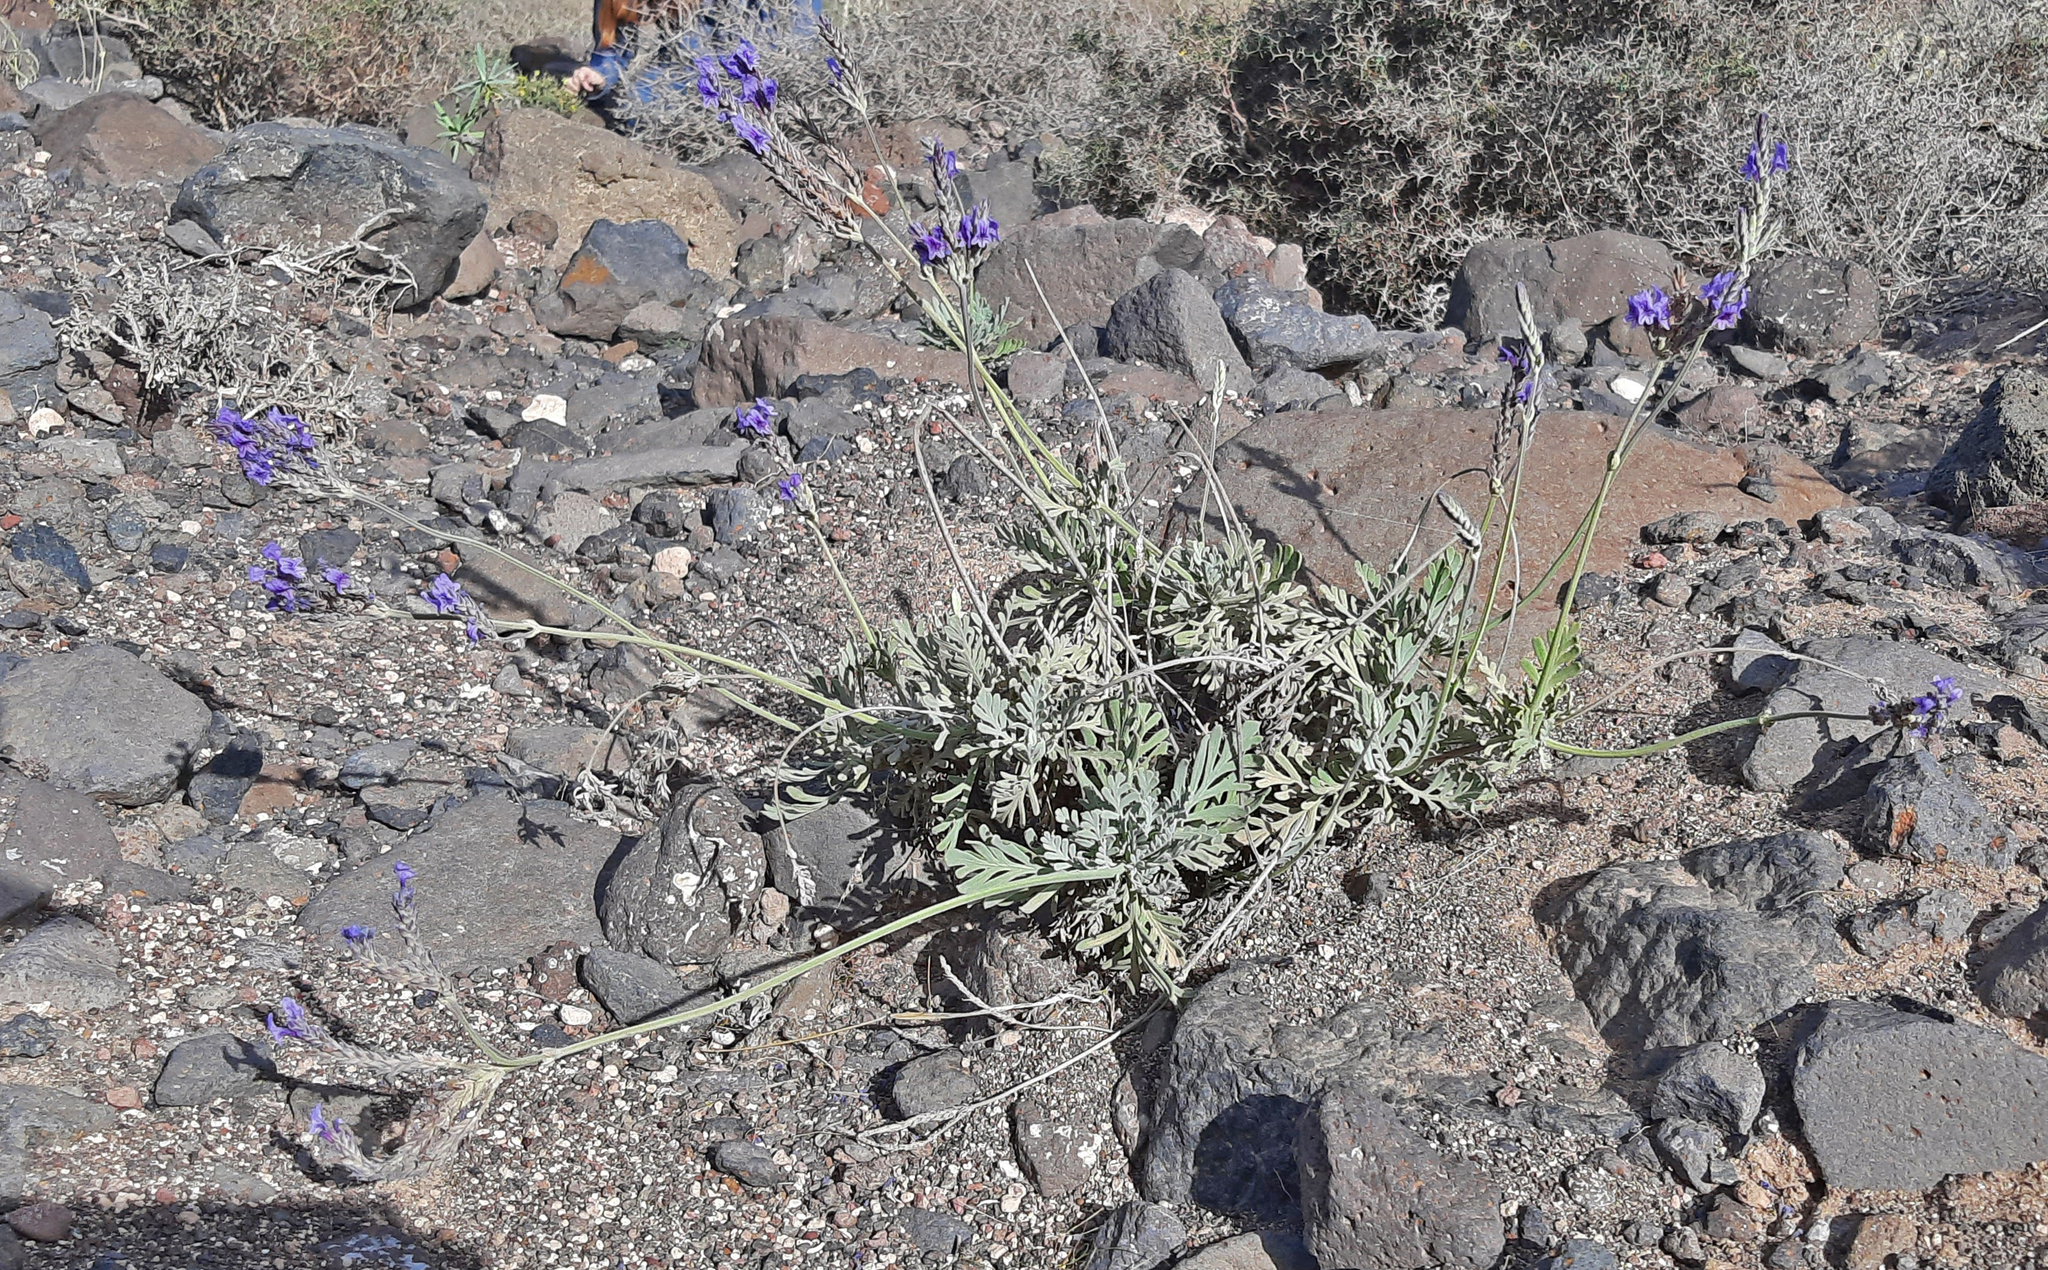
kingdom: Plantae
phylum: Tracheophyta
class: Magnoliopsida
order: Lamiales
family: Lamiaceae
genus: Lavandula
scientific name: Lavandula pinnata
